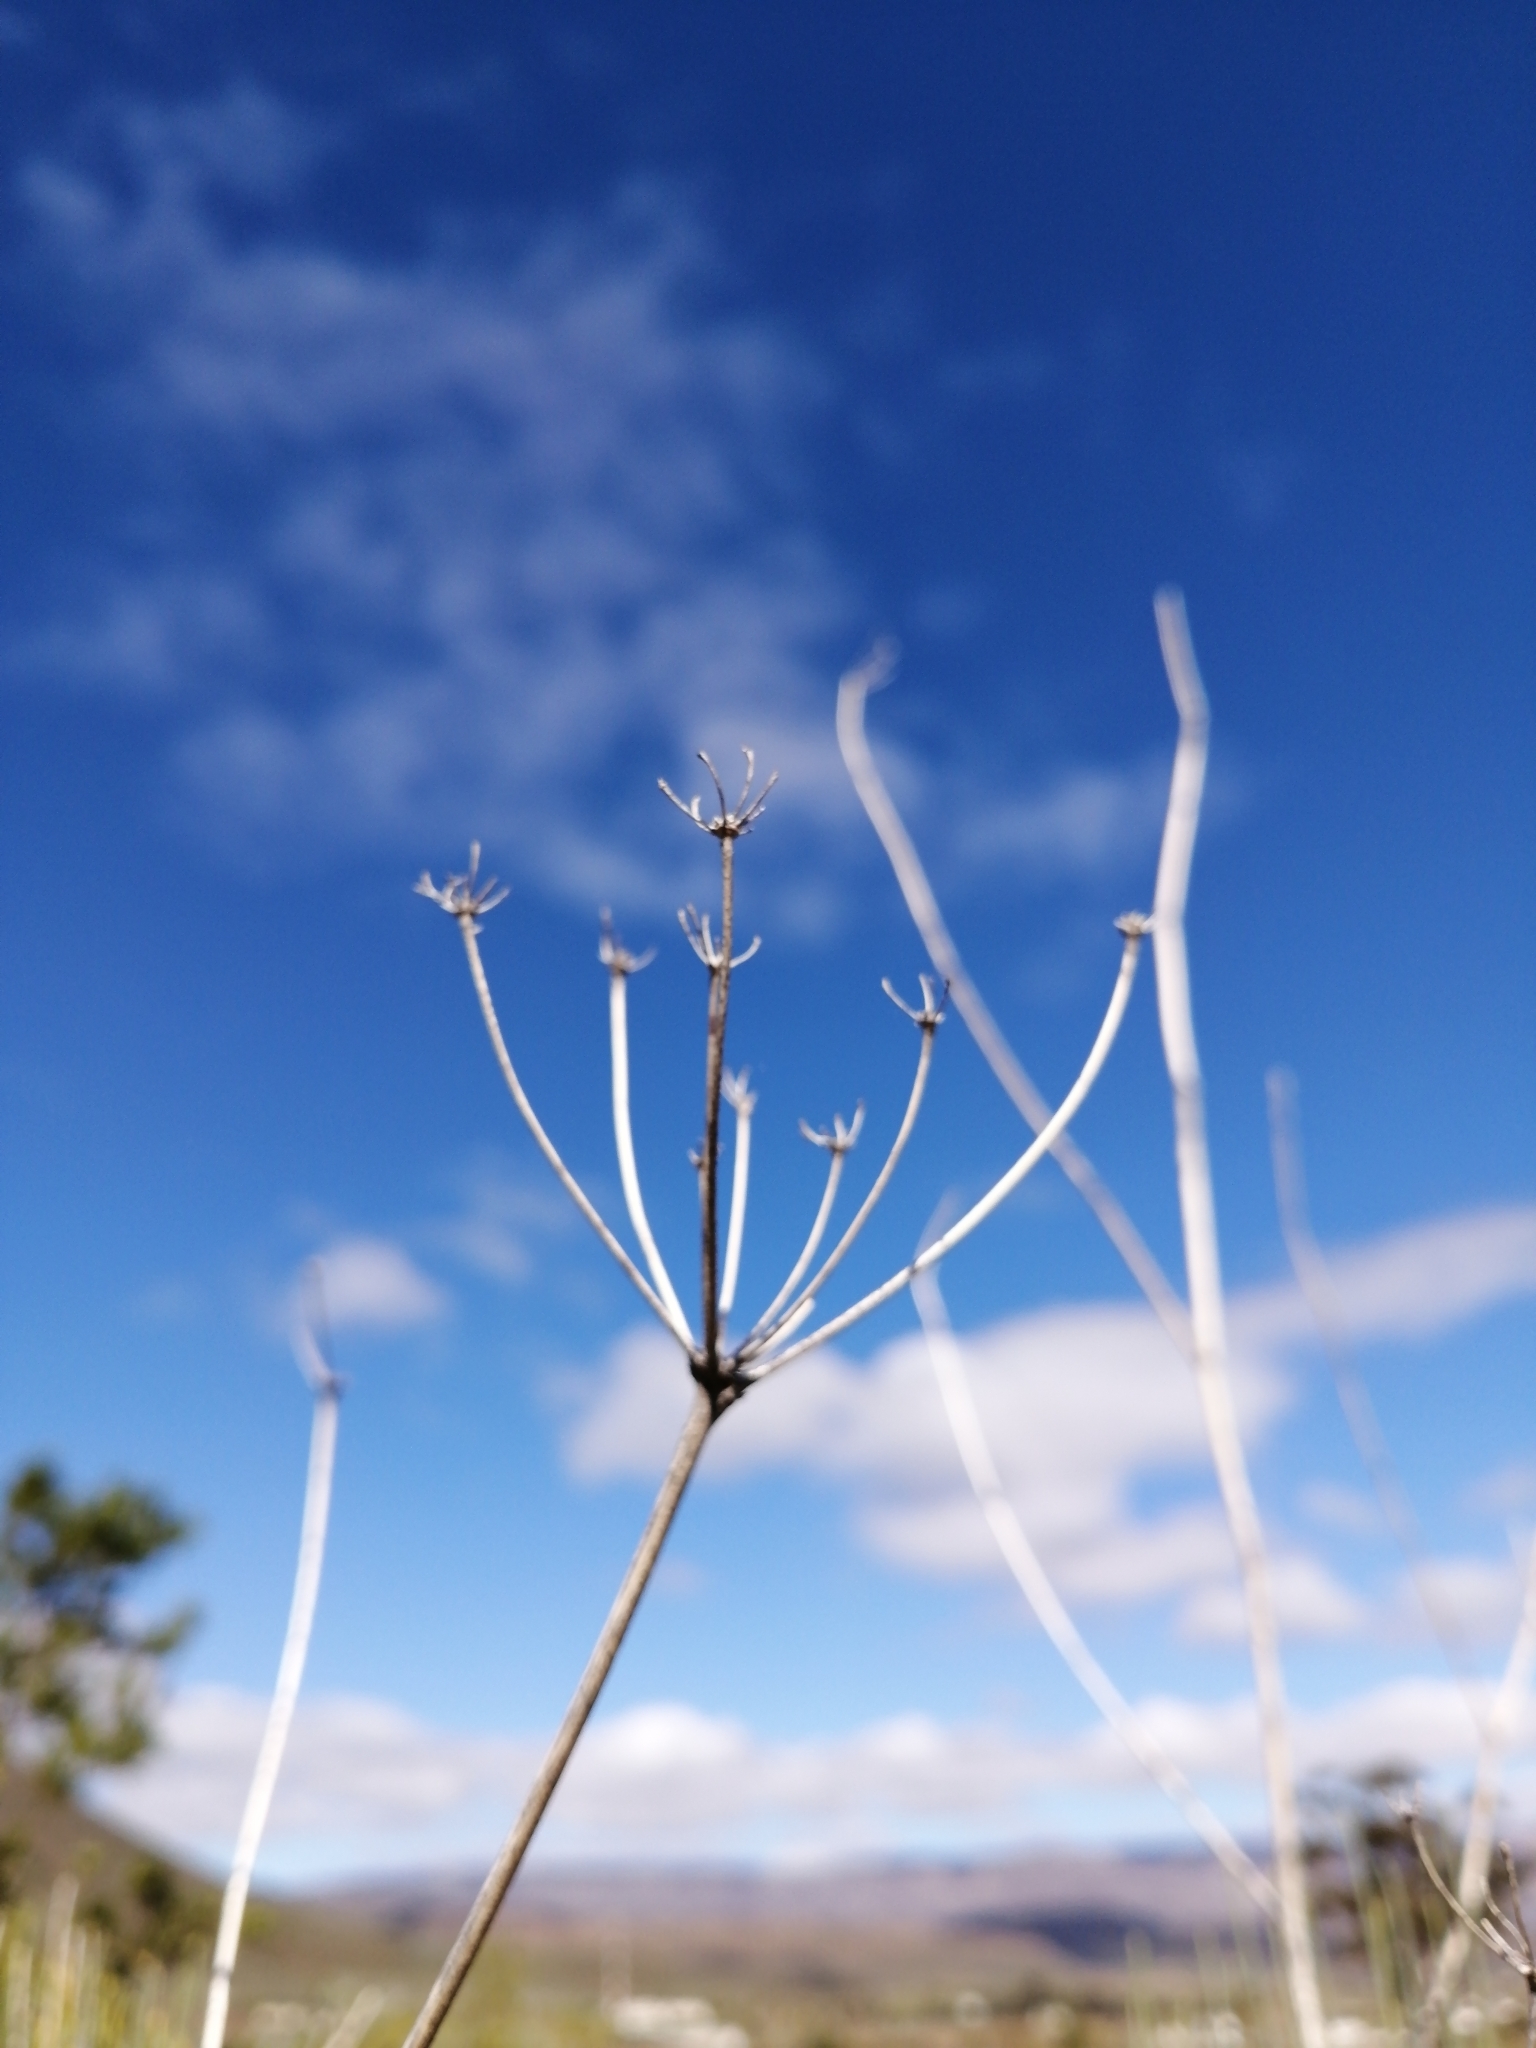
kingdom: Plantae
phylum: Tracheophyta
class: Magnoliopsida
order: Apiales
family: Apiaceae
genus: Anginon
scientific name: Anginon swellendamense
